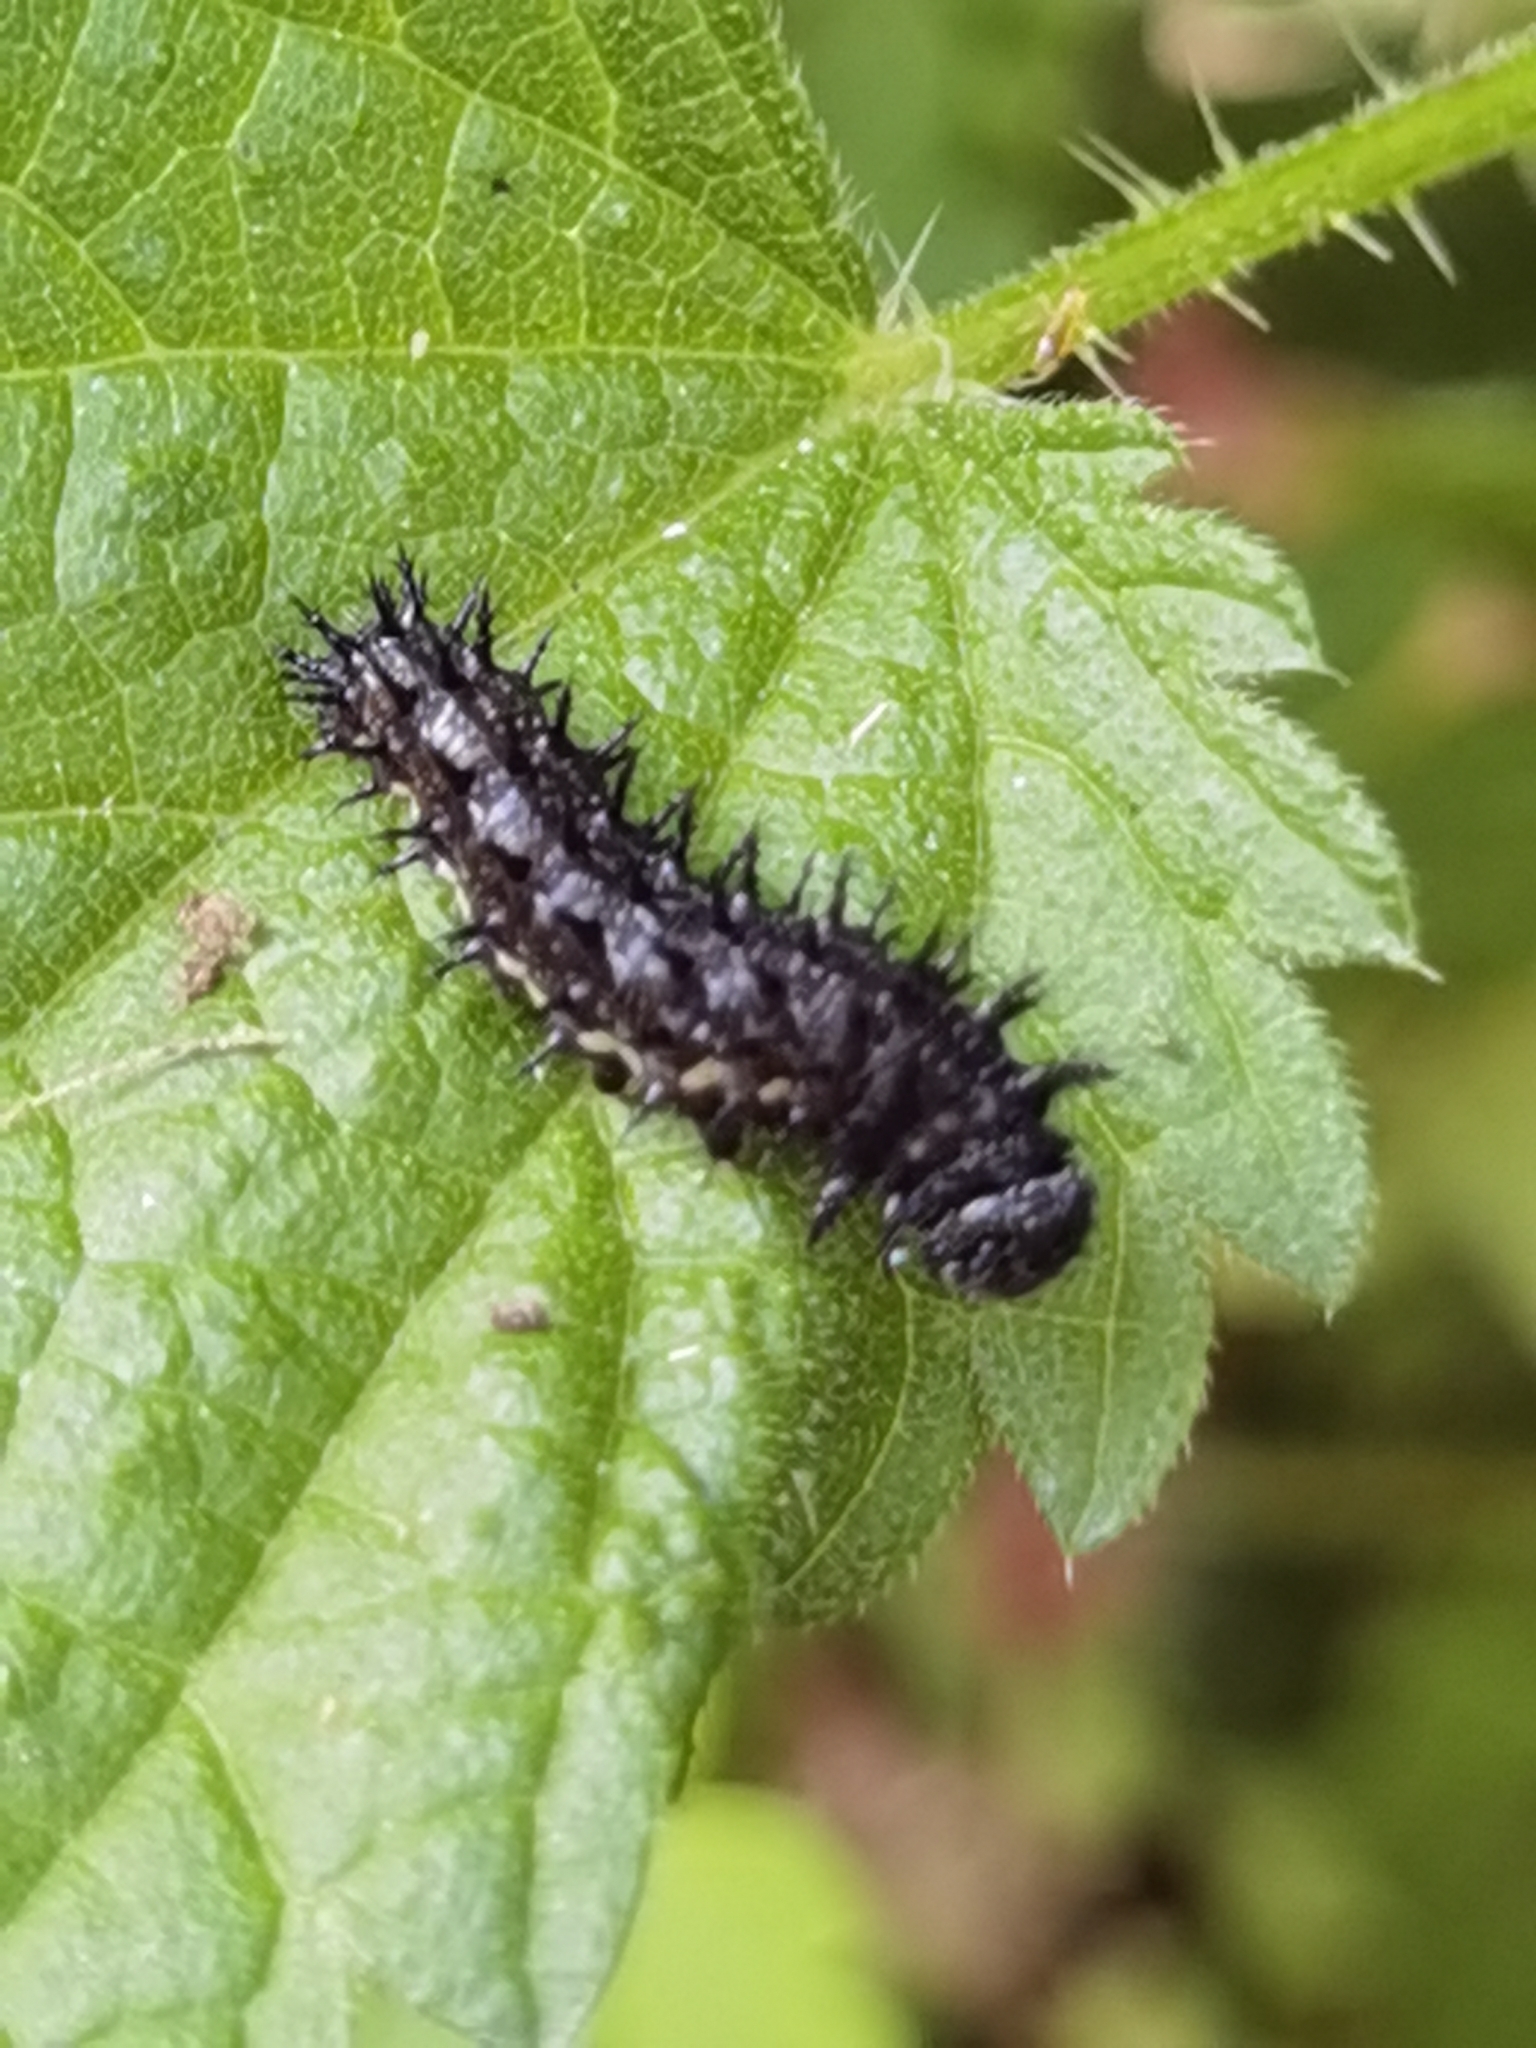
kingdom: Animalia
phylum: Arthropoda
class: Insecta
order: Lepidoptera
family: Nymphalidae
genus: Vanessa
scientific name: Vanessa atalanta
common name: Red admiral
